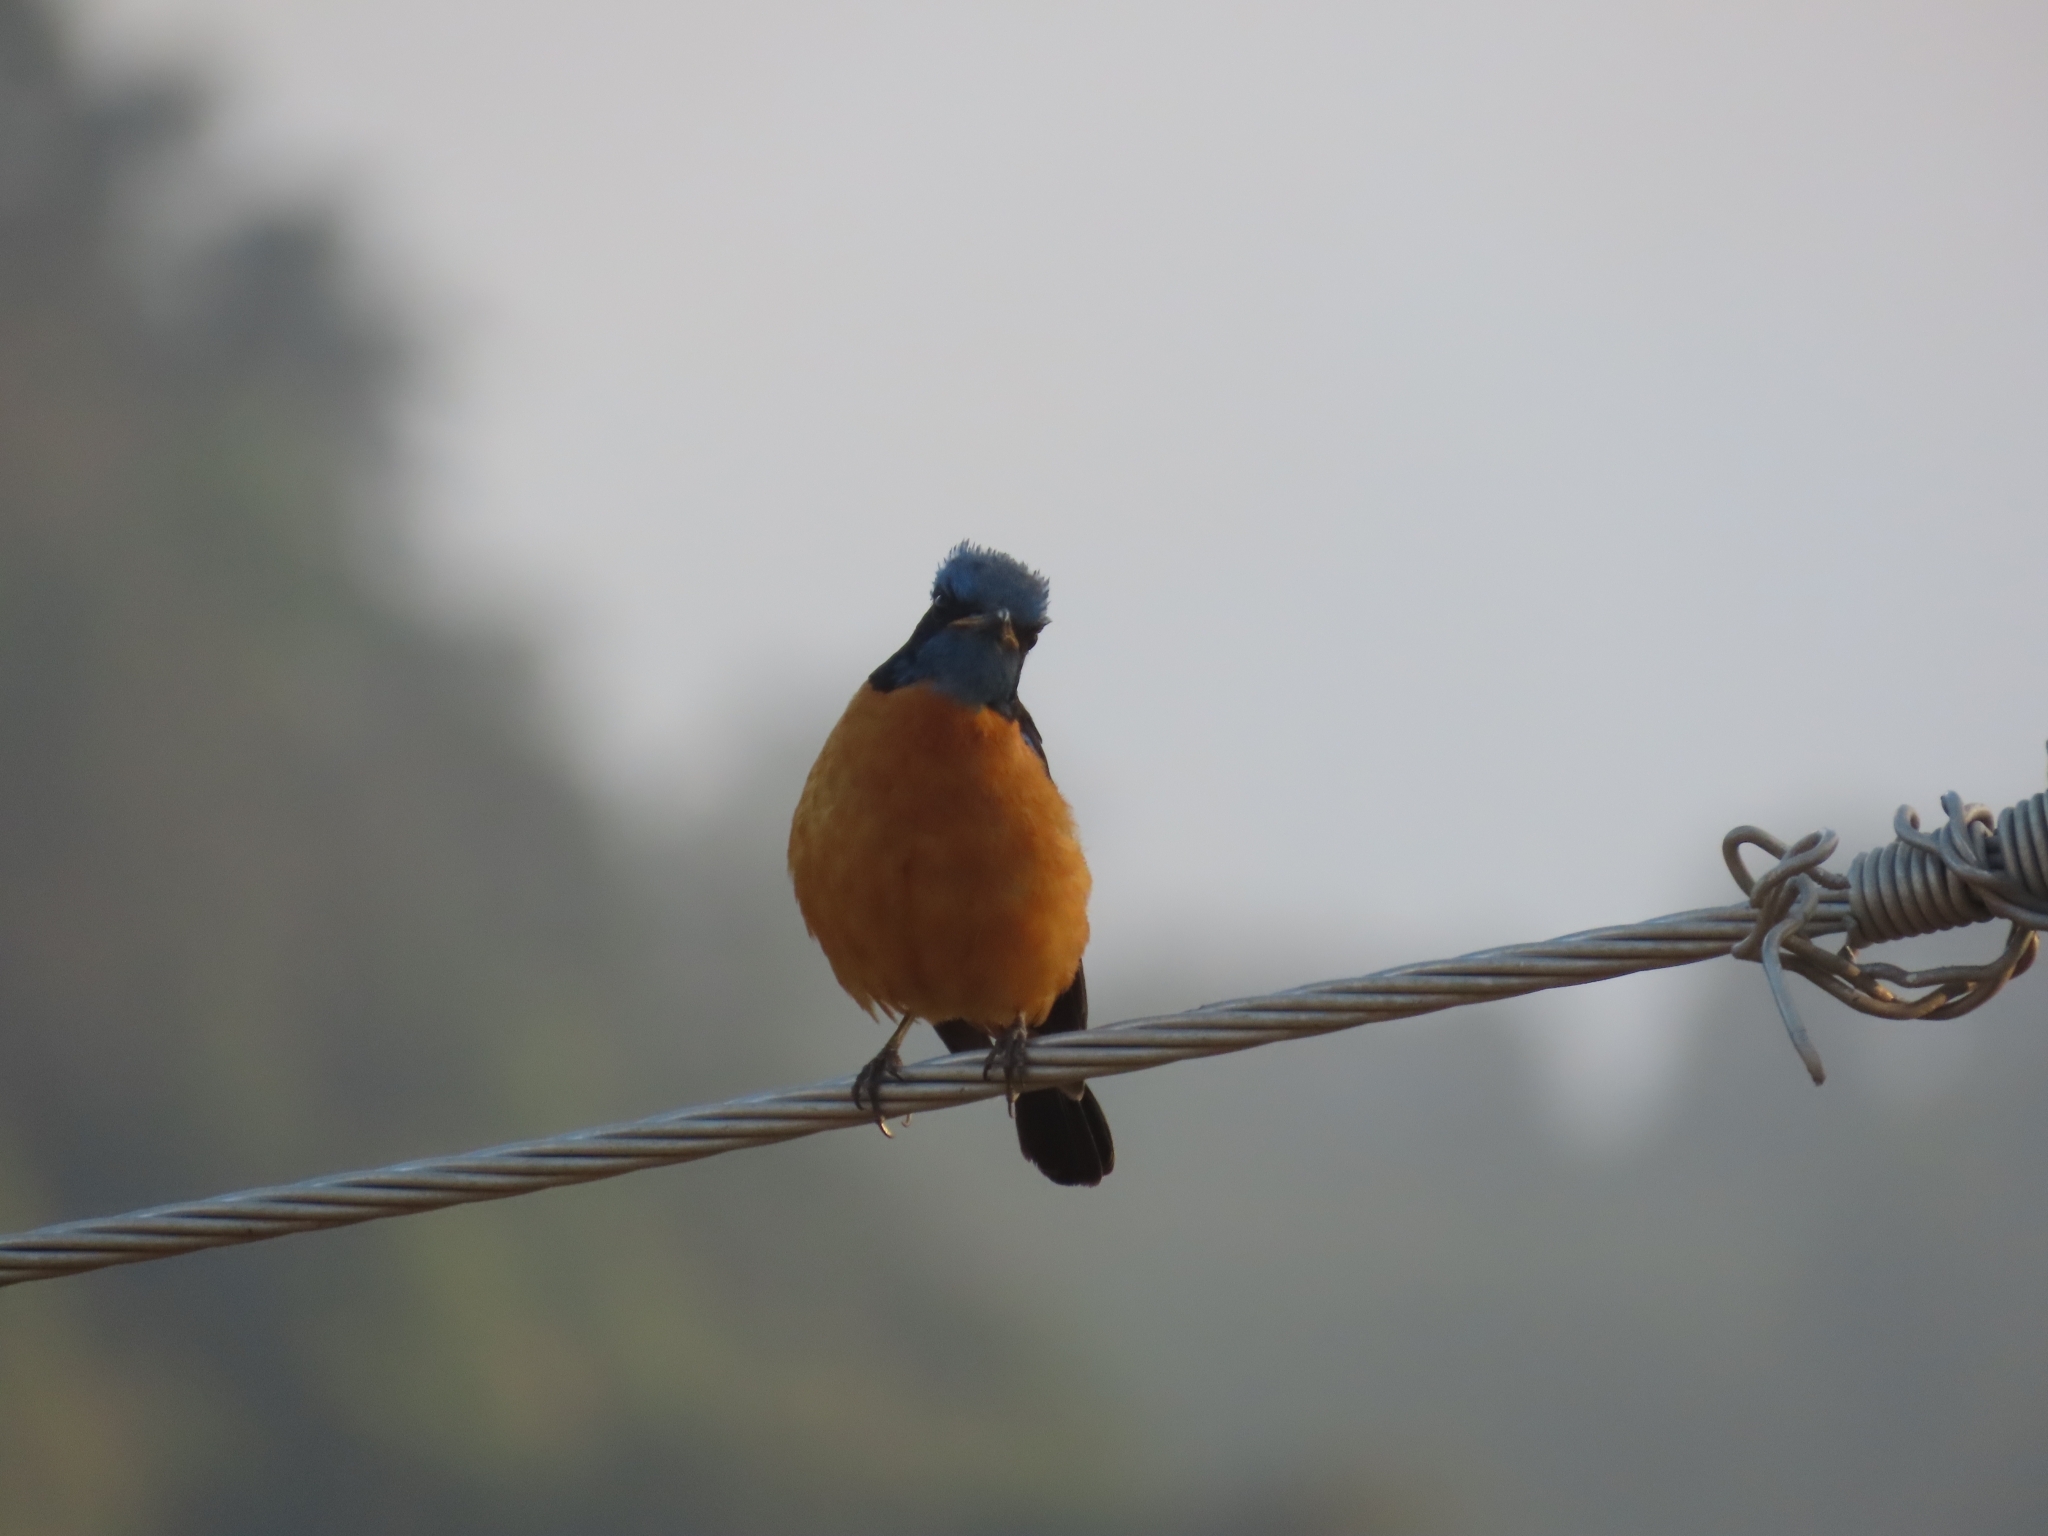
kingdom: Animalia
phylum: Chordata
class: Aves
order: Passeriformes
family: Muscicapidae
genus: Monticola
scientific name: Monticola cinclorhynchus
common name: Blue-capped rock thrush
